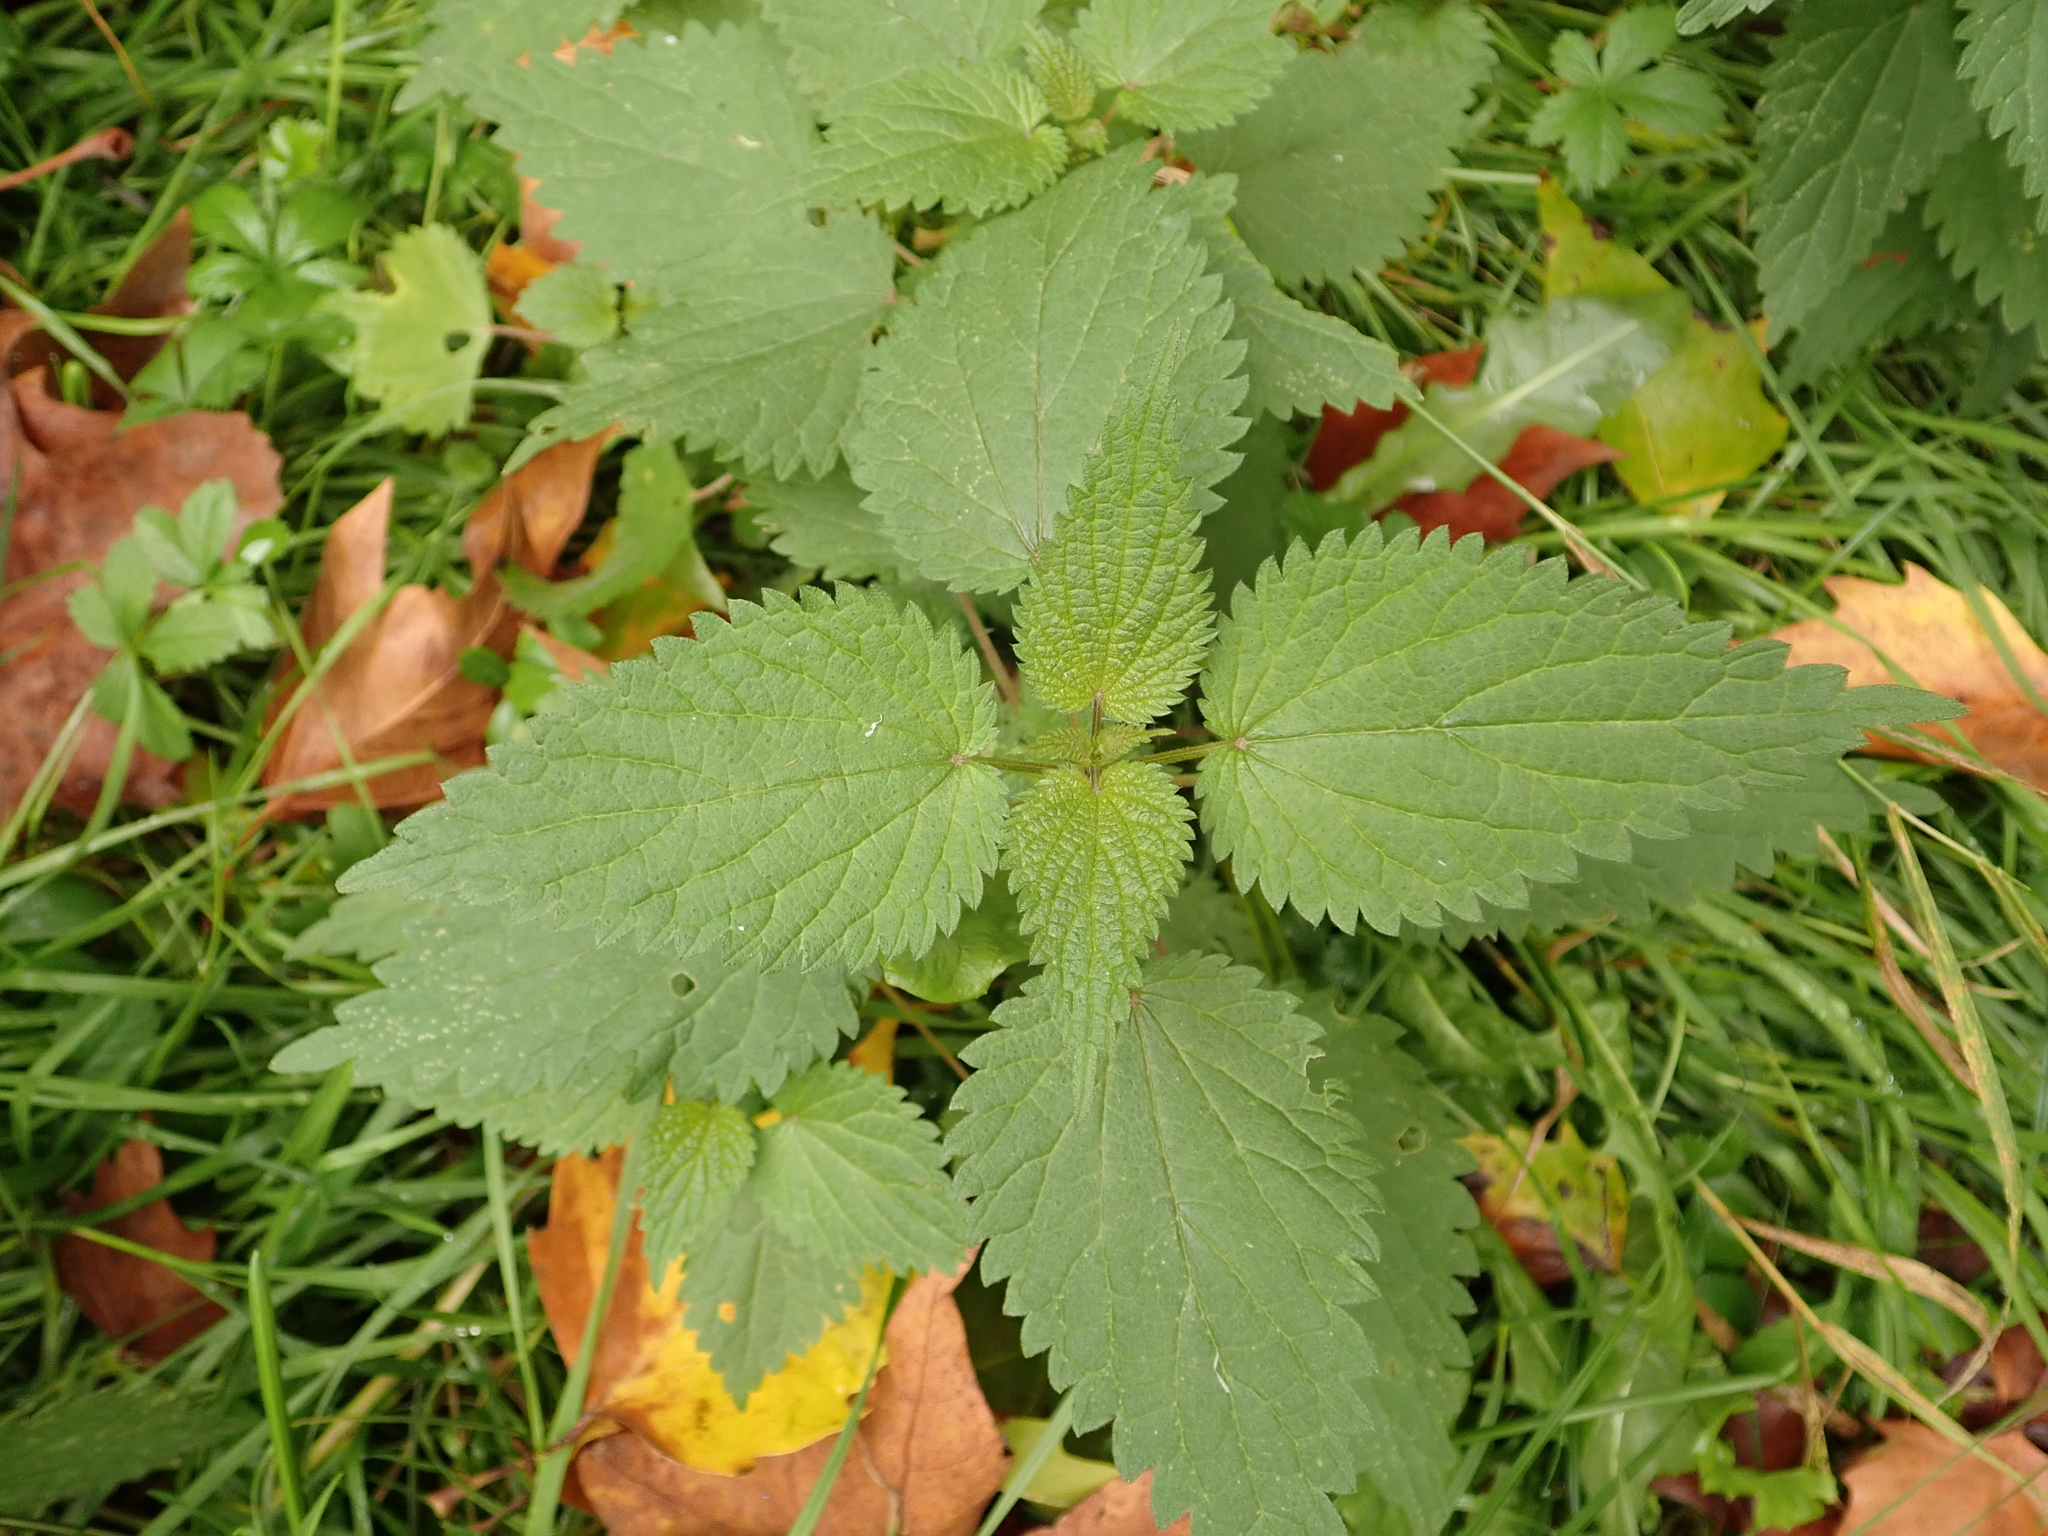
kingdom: Plantae
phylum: Tracheophyta
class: Magnoliopsida
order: Rosales
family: Urticaceae
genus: Urtica
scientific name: Urtica dioica
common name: Common nettle
